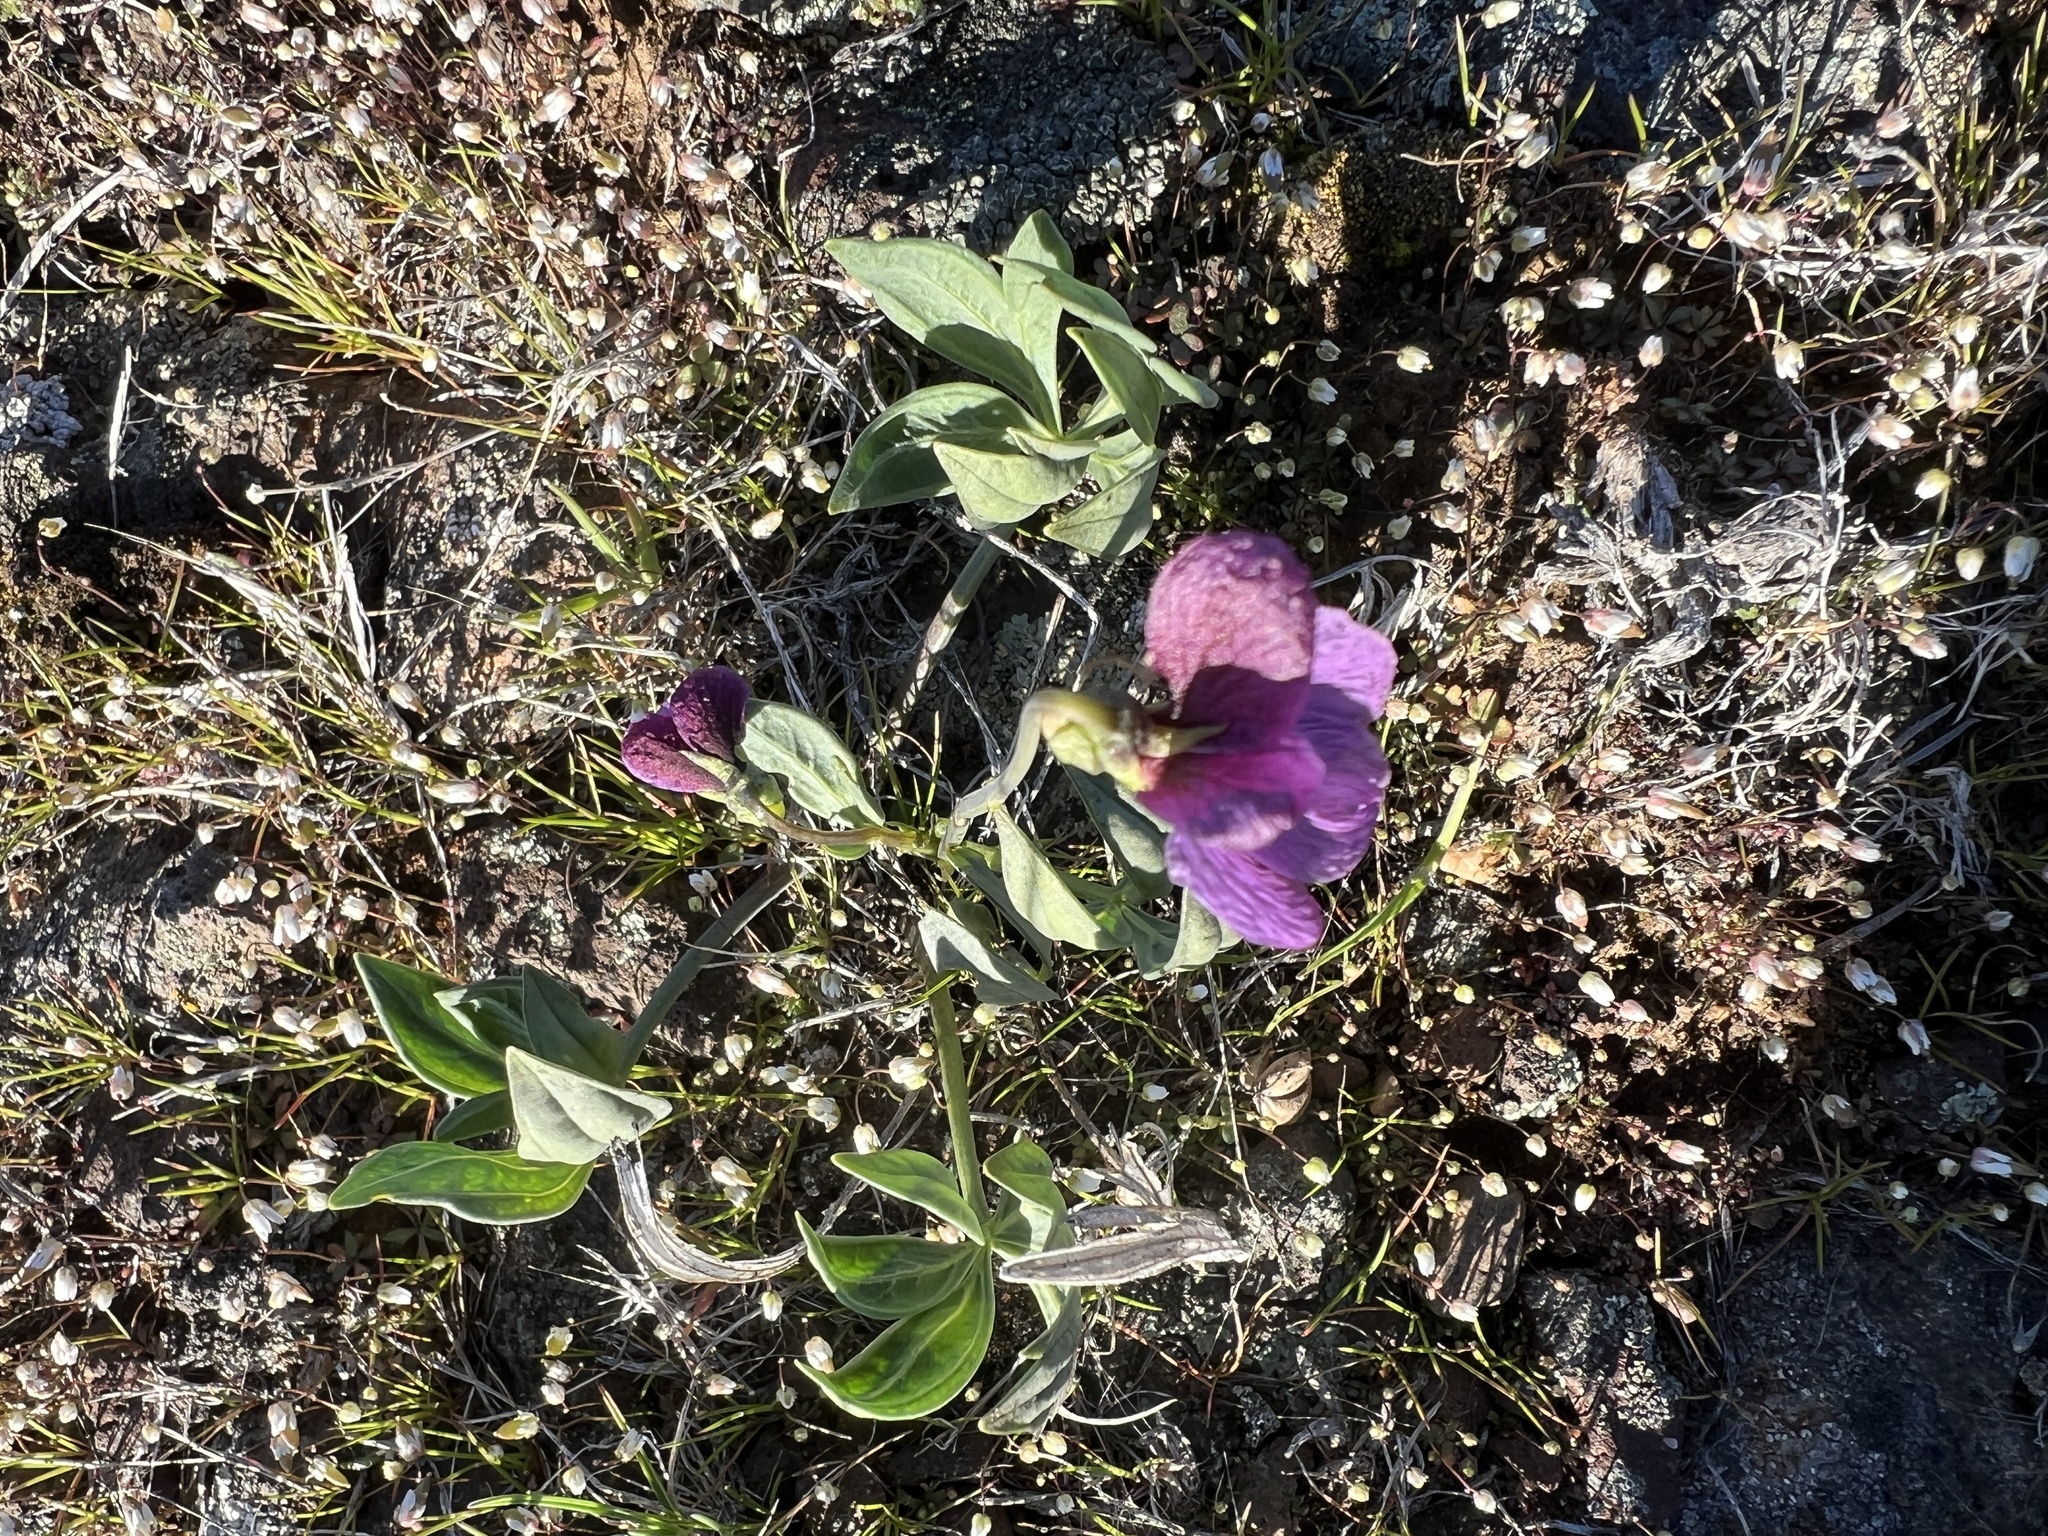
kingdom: Plantae
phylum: Tracheophyta
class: Magnoliopsida
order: Malpighiales
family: Violaceae
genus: Viola
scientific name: Viola trinervata
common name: Sagebrush violet
